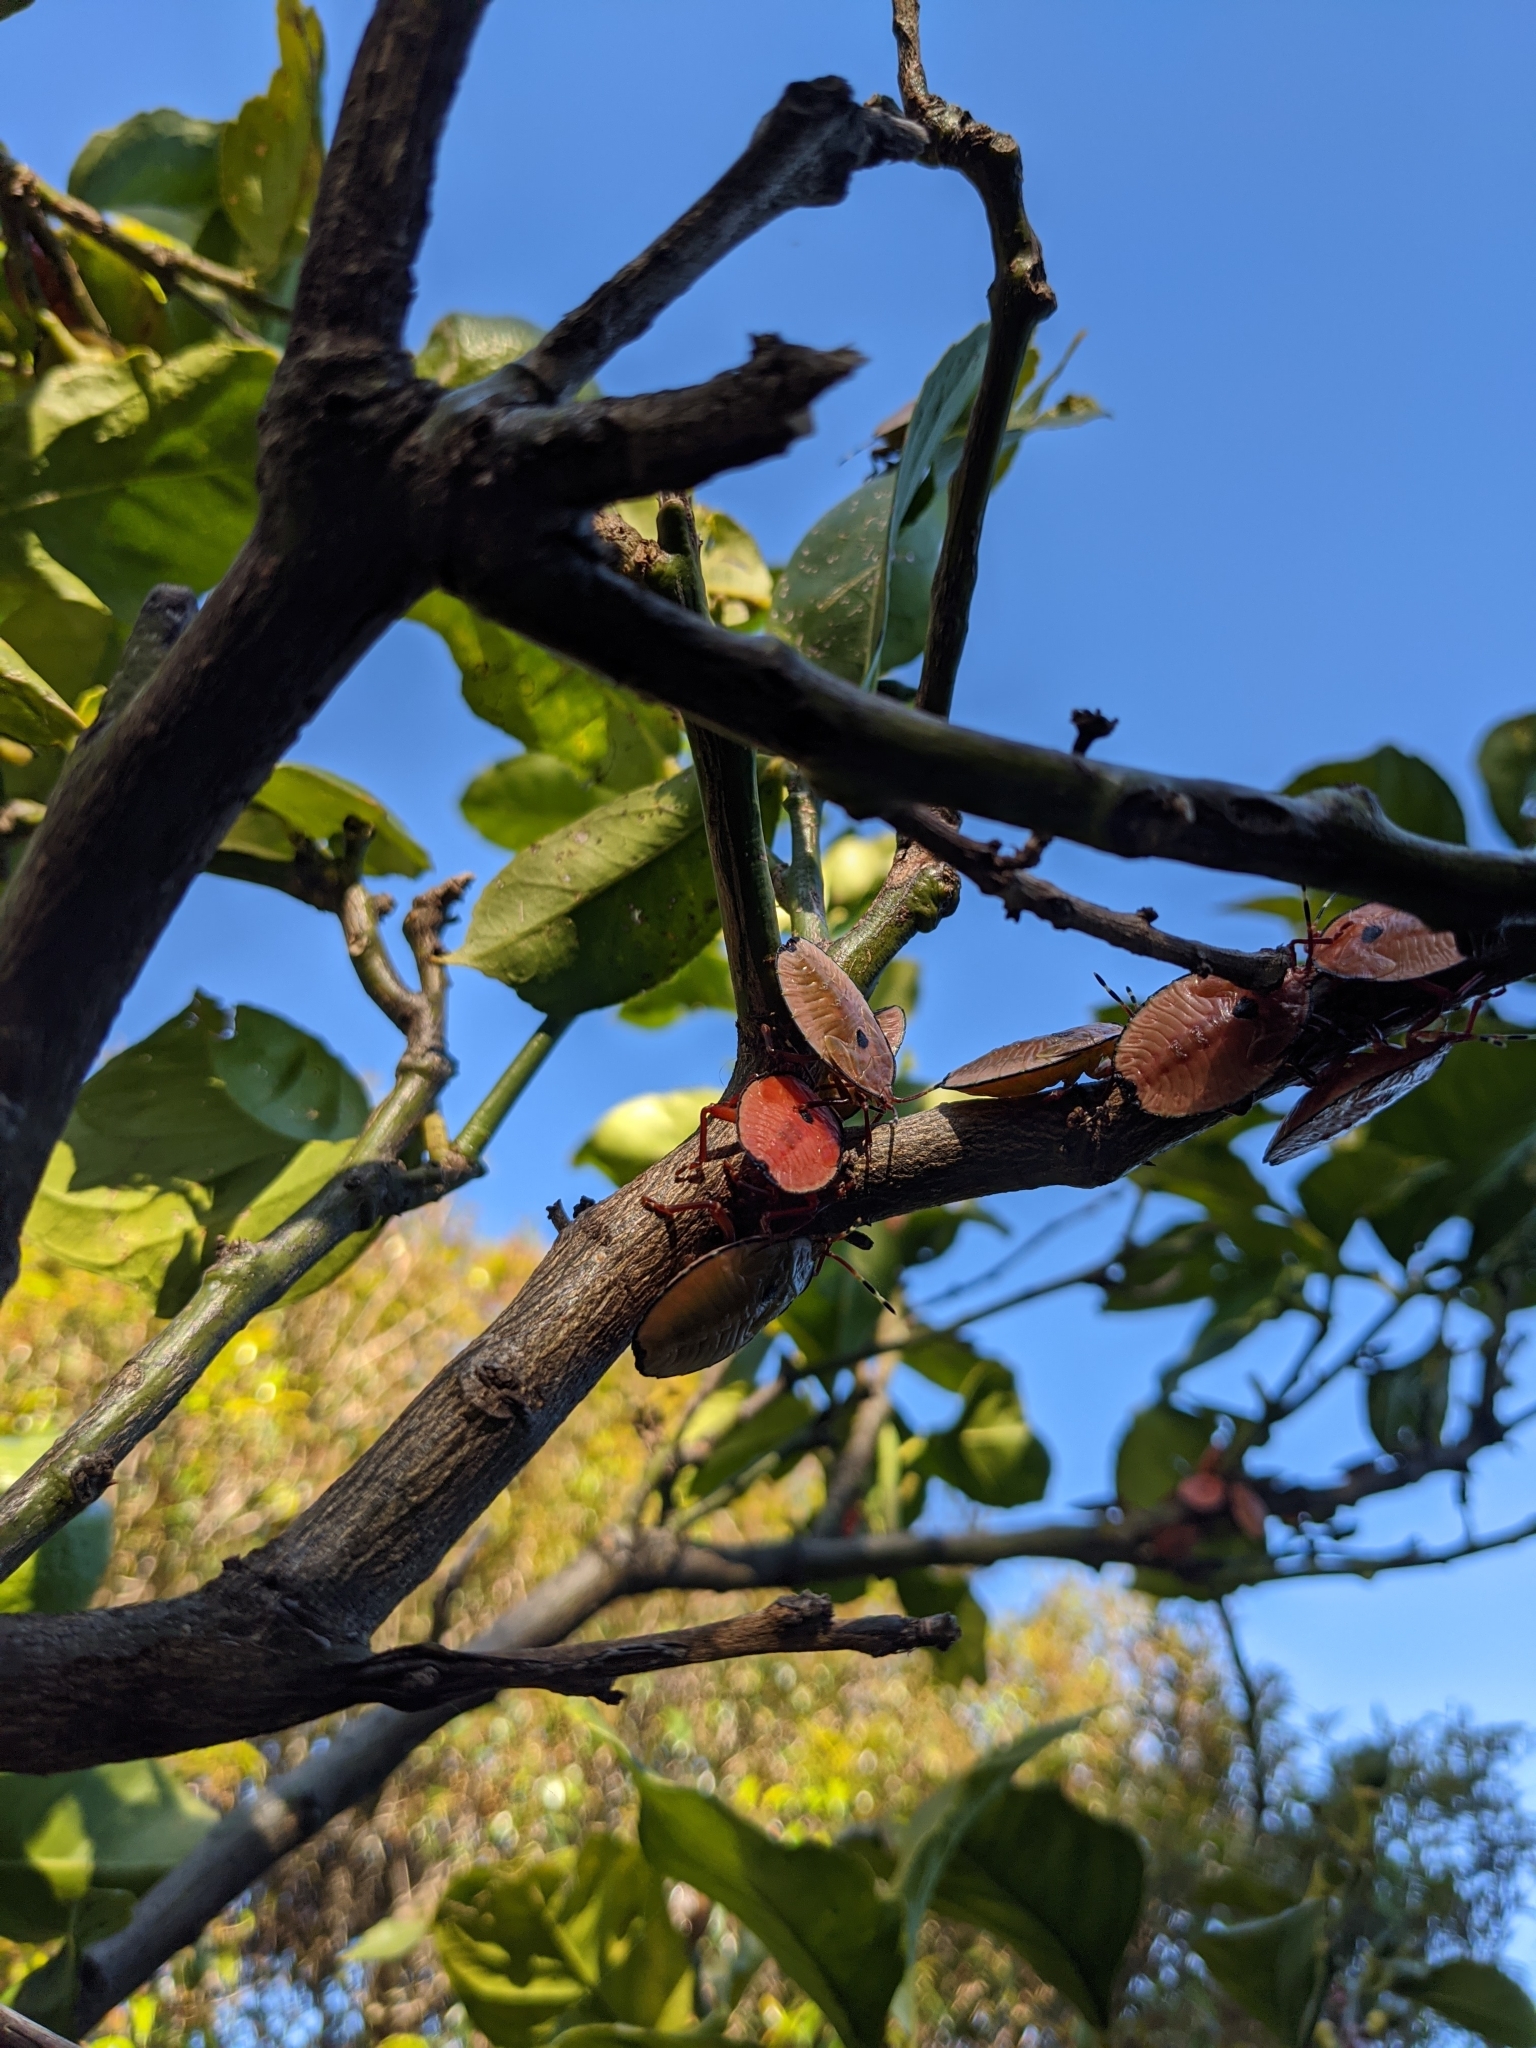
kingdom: Animalia
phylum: Arthropoda
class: Insecta
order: Hemiptera
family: Tessaratomidae
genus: Musgraveia
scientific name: Musgraveia sulciventris
